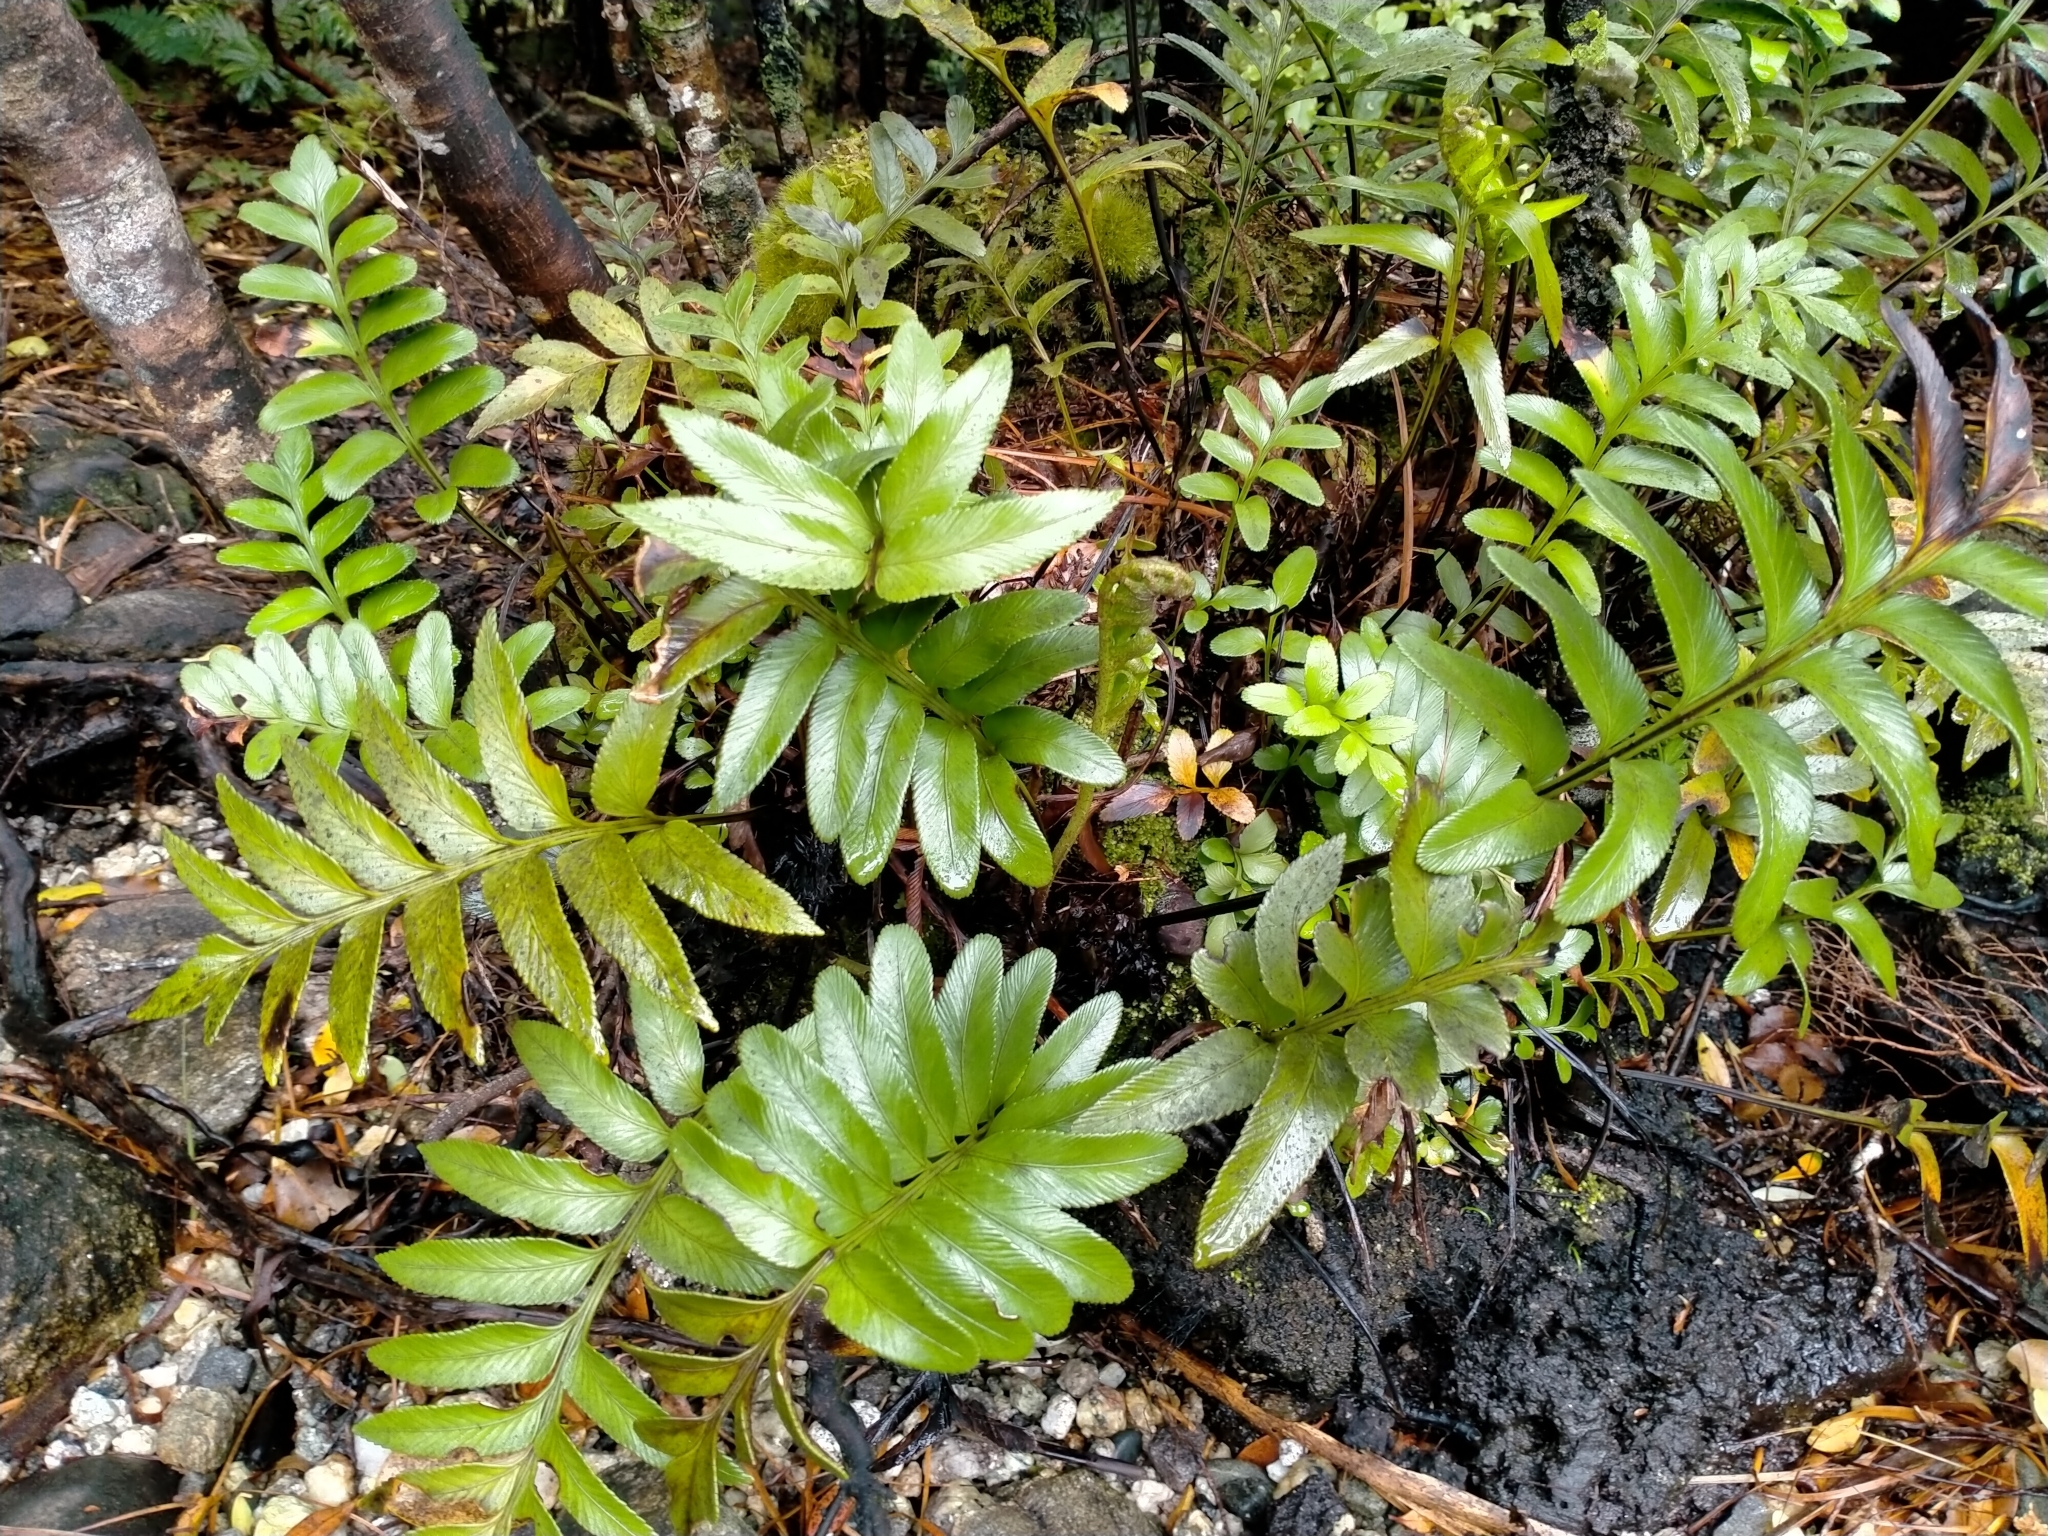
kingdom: Plantae
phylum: Tracheophyta
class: Polypodiopsida
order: Polypodiales
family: Aspleniaceae
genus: Asplenium
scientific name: Asplenium obtusatum
